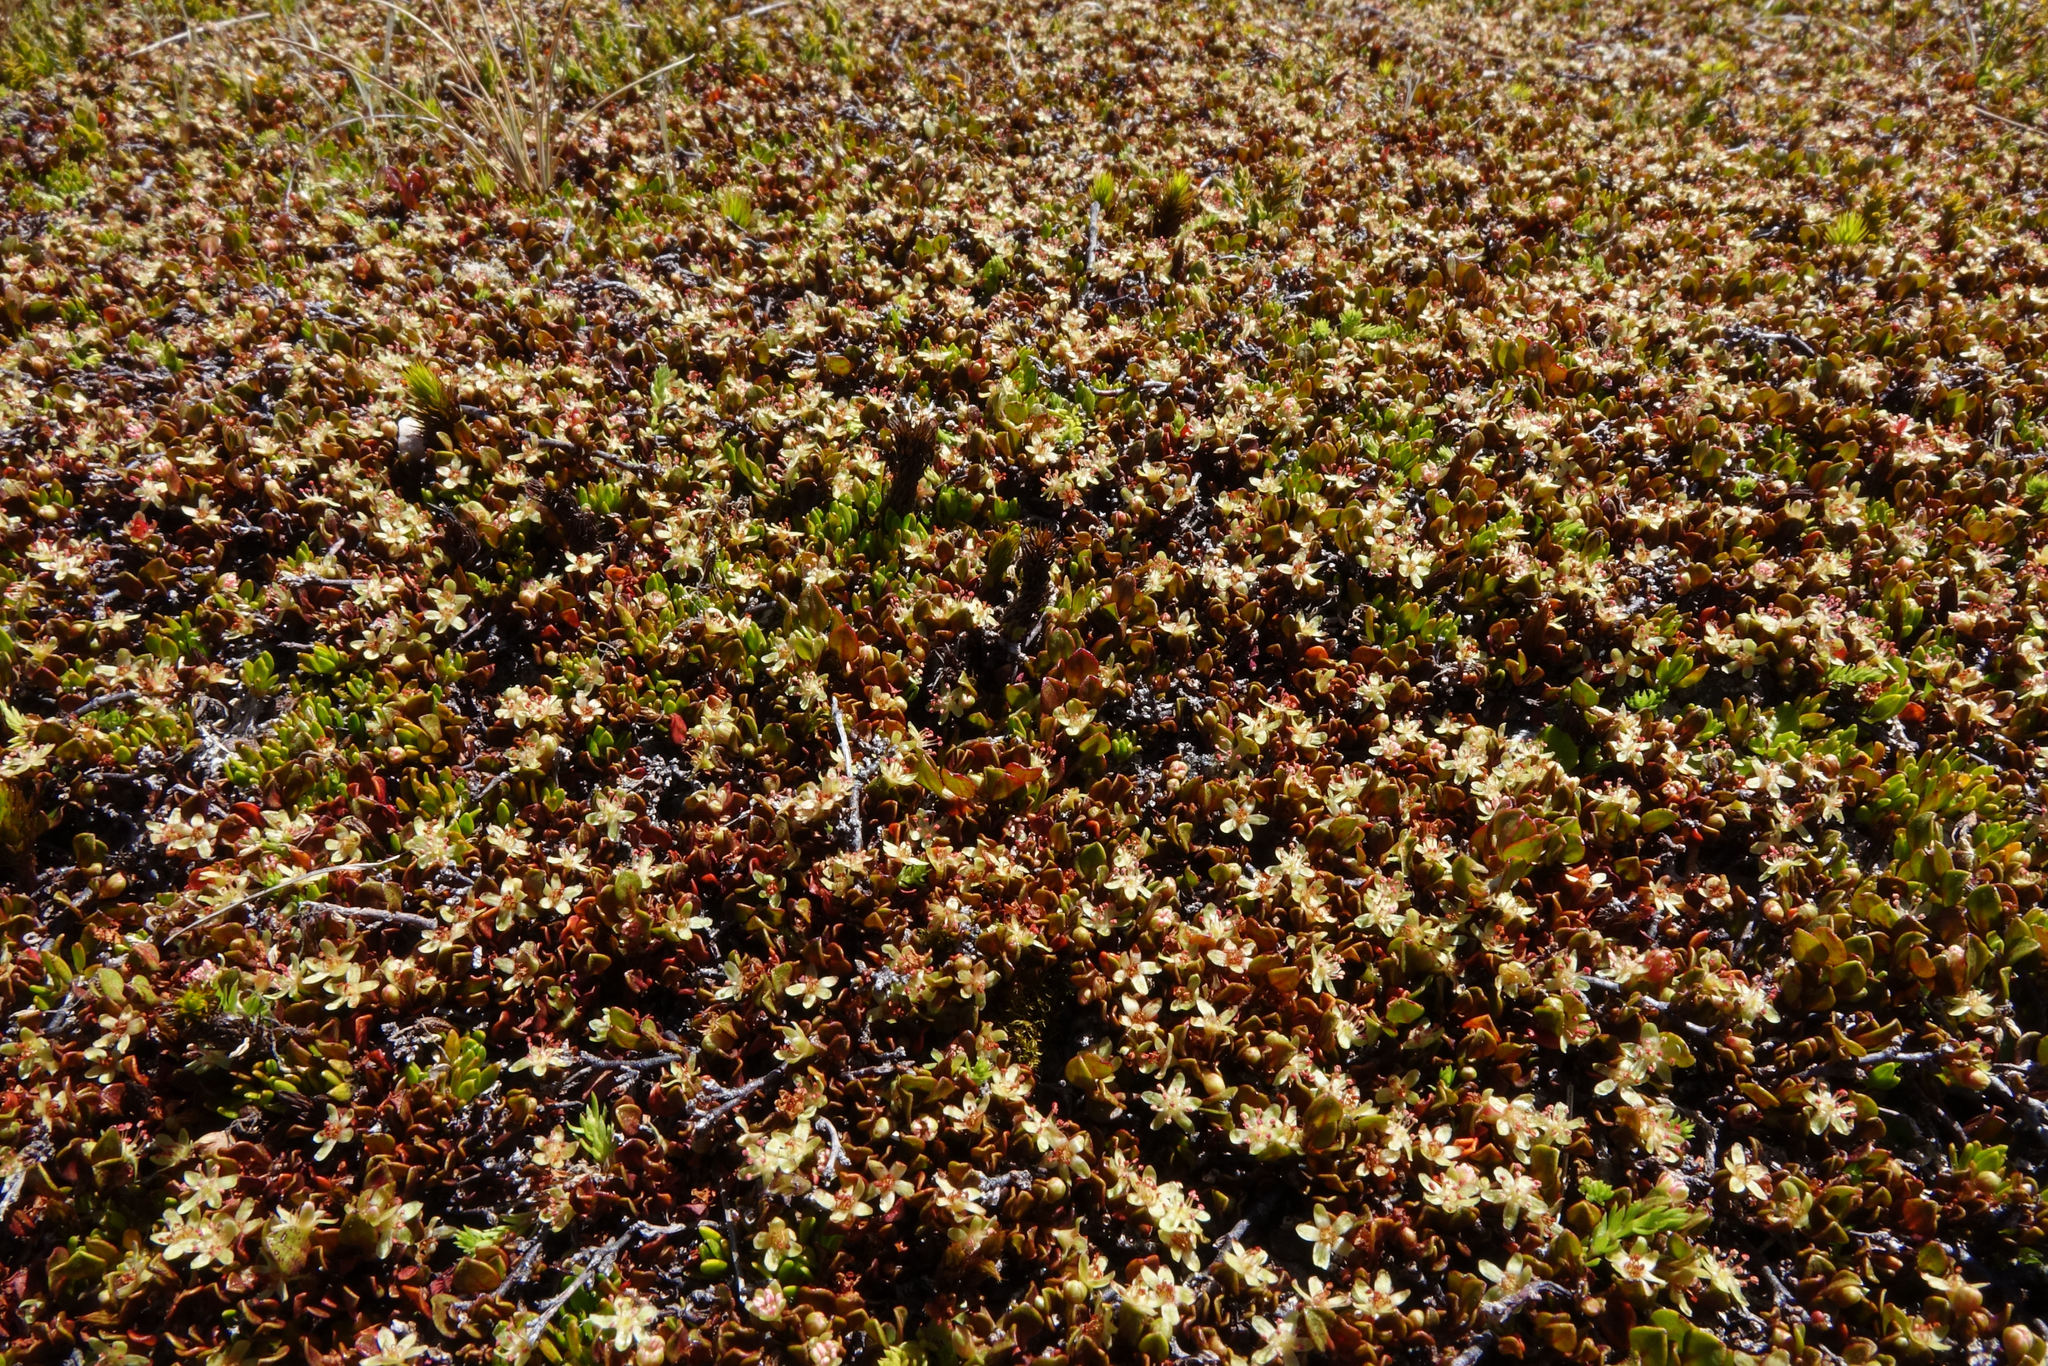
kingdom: Plantae
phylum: Tracheophyta
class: Magnoliopsida
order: Caryophyllales
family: Polygonaceae
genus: Muehlenbeckia
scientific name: Muehlenbeckia axillaris
